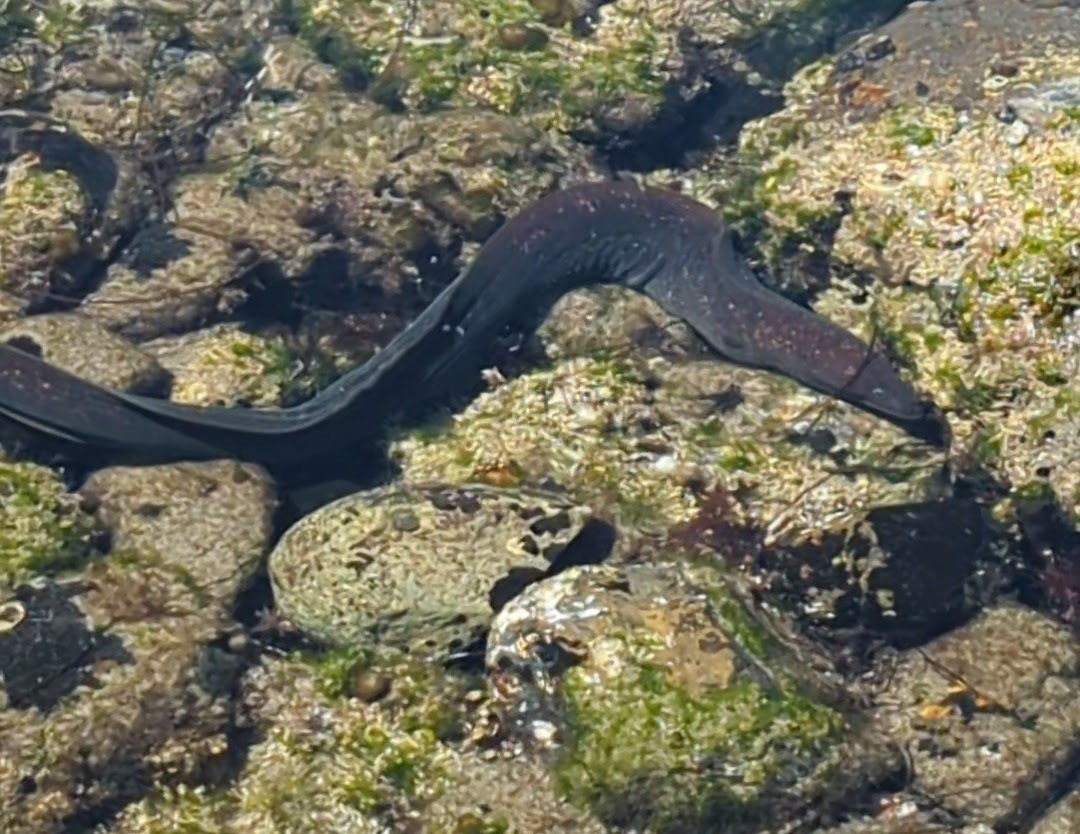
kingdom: Animalia
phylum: Chordata
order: Anguilliformes
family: Muraenidae
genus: Gymnothorax
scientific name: Gymnothorax mordax
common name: California moray
